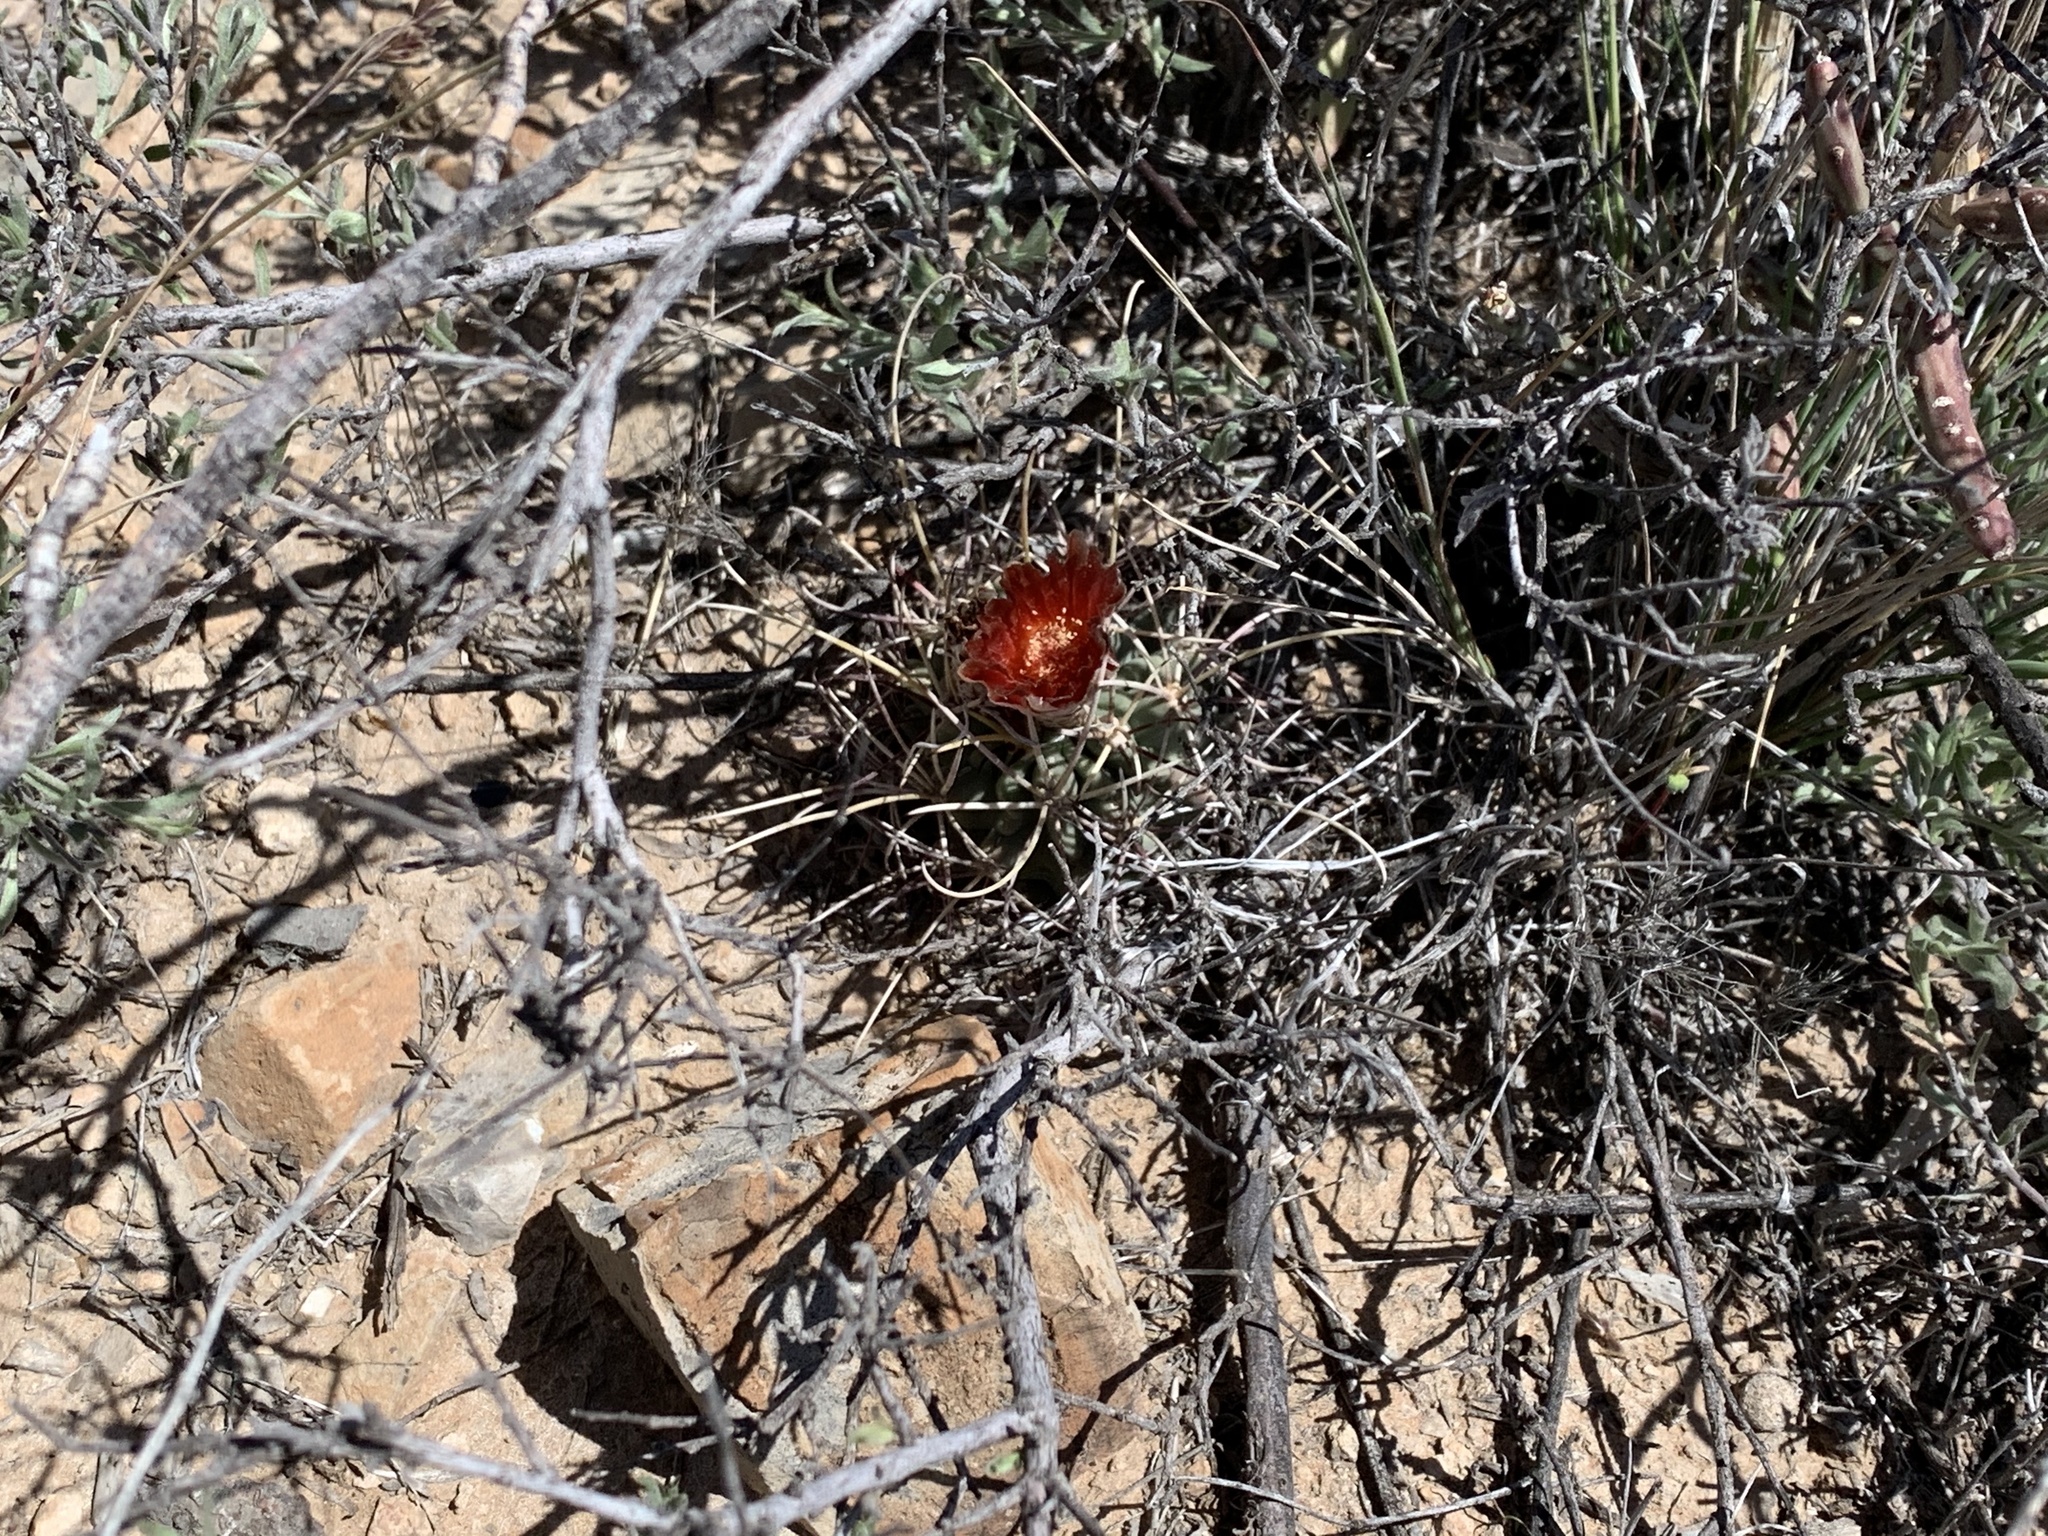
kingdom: Plantae
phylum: Tracheophyta
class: Magnoliopsida
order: Caryophyllales
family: Cactaceae
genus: Ferocactus
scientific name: Ferocactus uncinatus
